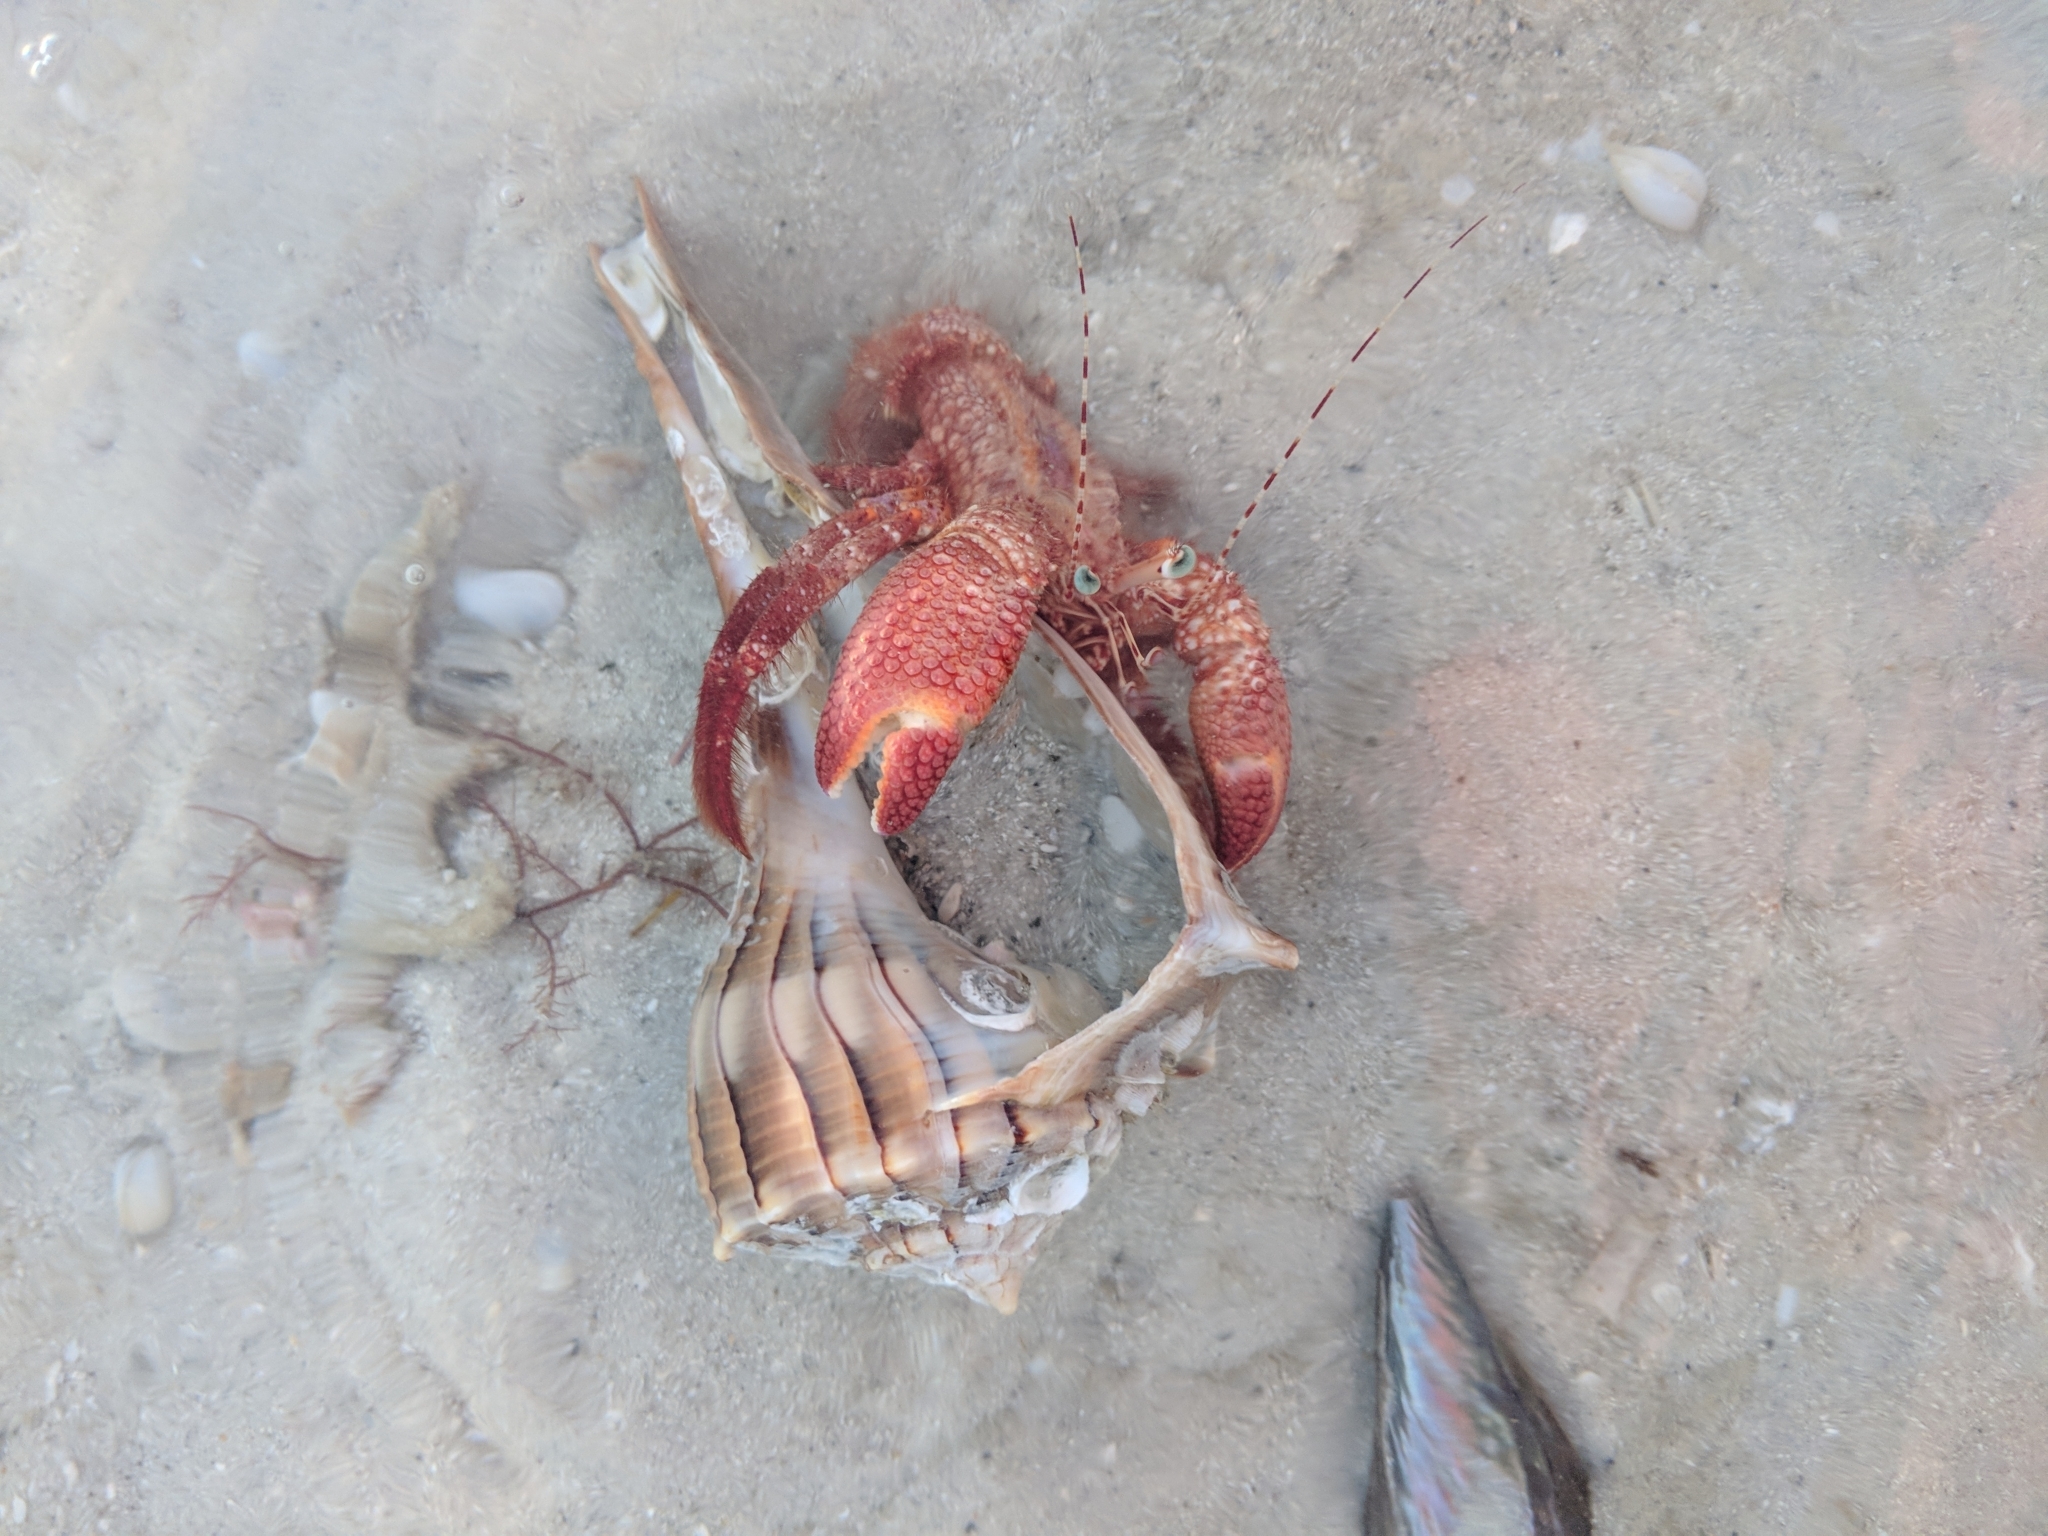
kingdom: Animalia
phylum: Arthropoda
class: Malacostraca
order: Decapoda
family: Diogenidae
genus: Petrochirus
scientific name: Petrochirus diogenes
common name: Giant hermit crab
